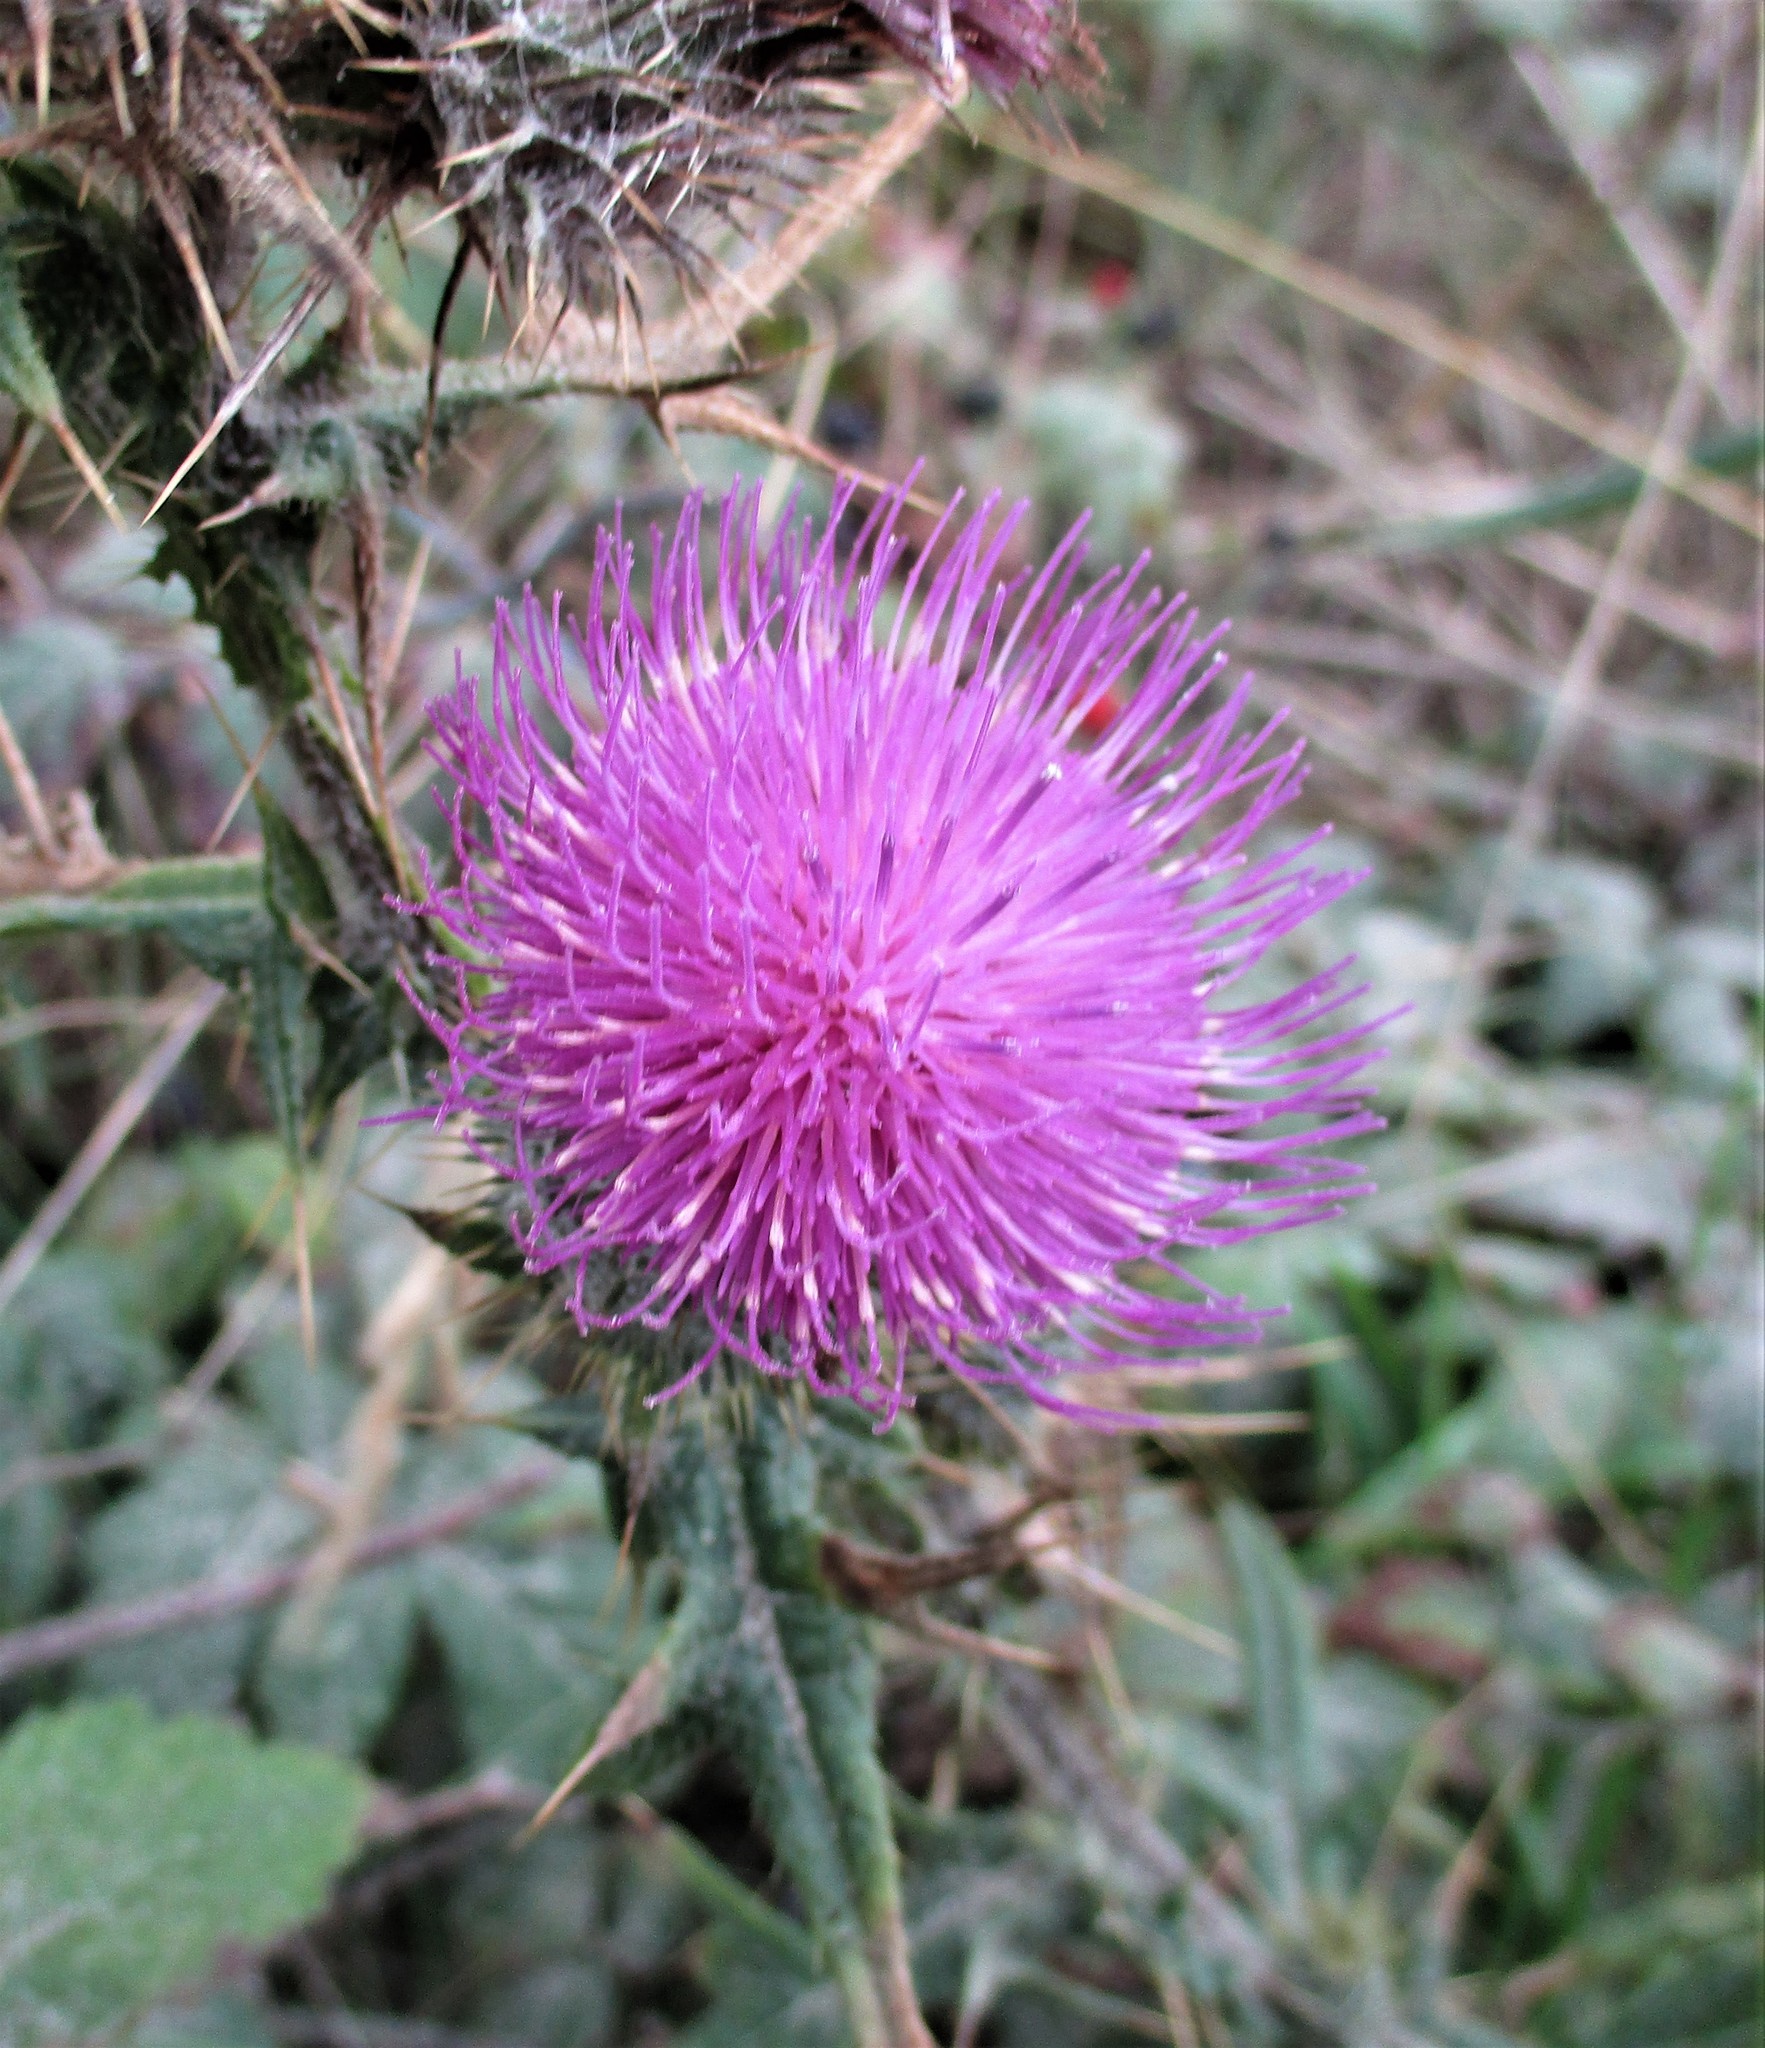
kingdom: Plantae
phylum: Tracheophyta
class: Magnoliopsida
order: Asterales
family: Asteraceae
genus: Cirsium
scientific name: Cirsium vulgare
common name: Bull thistle
